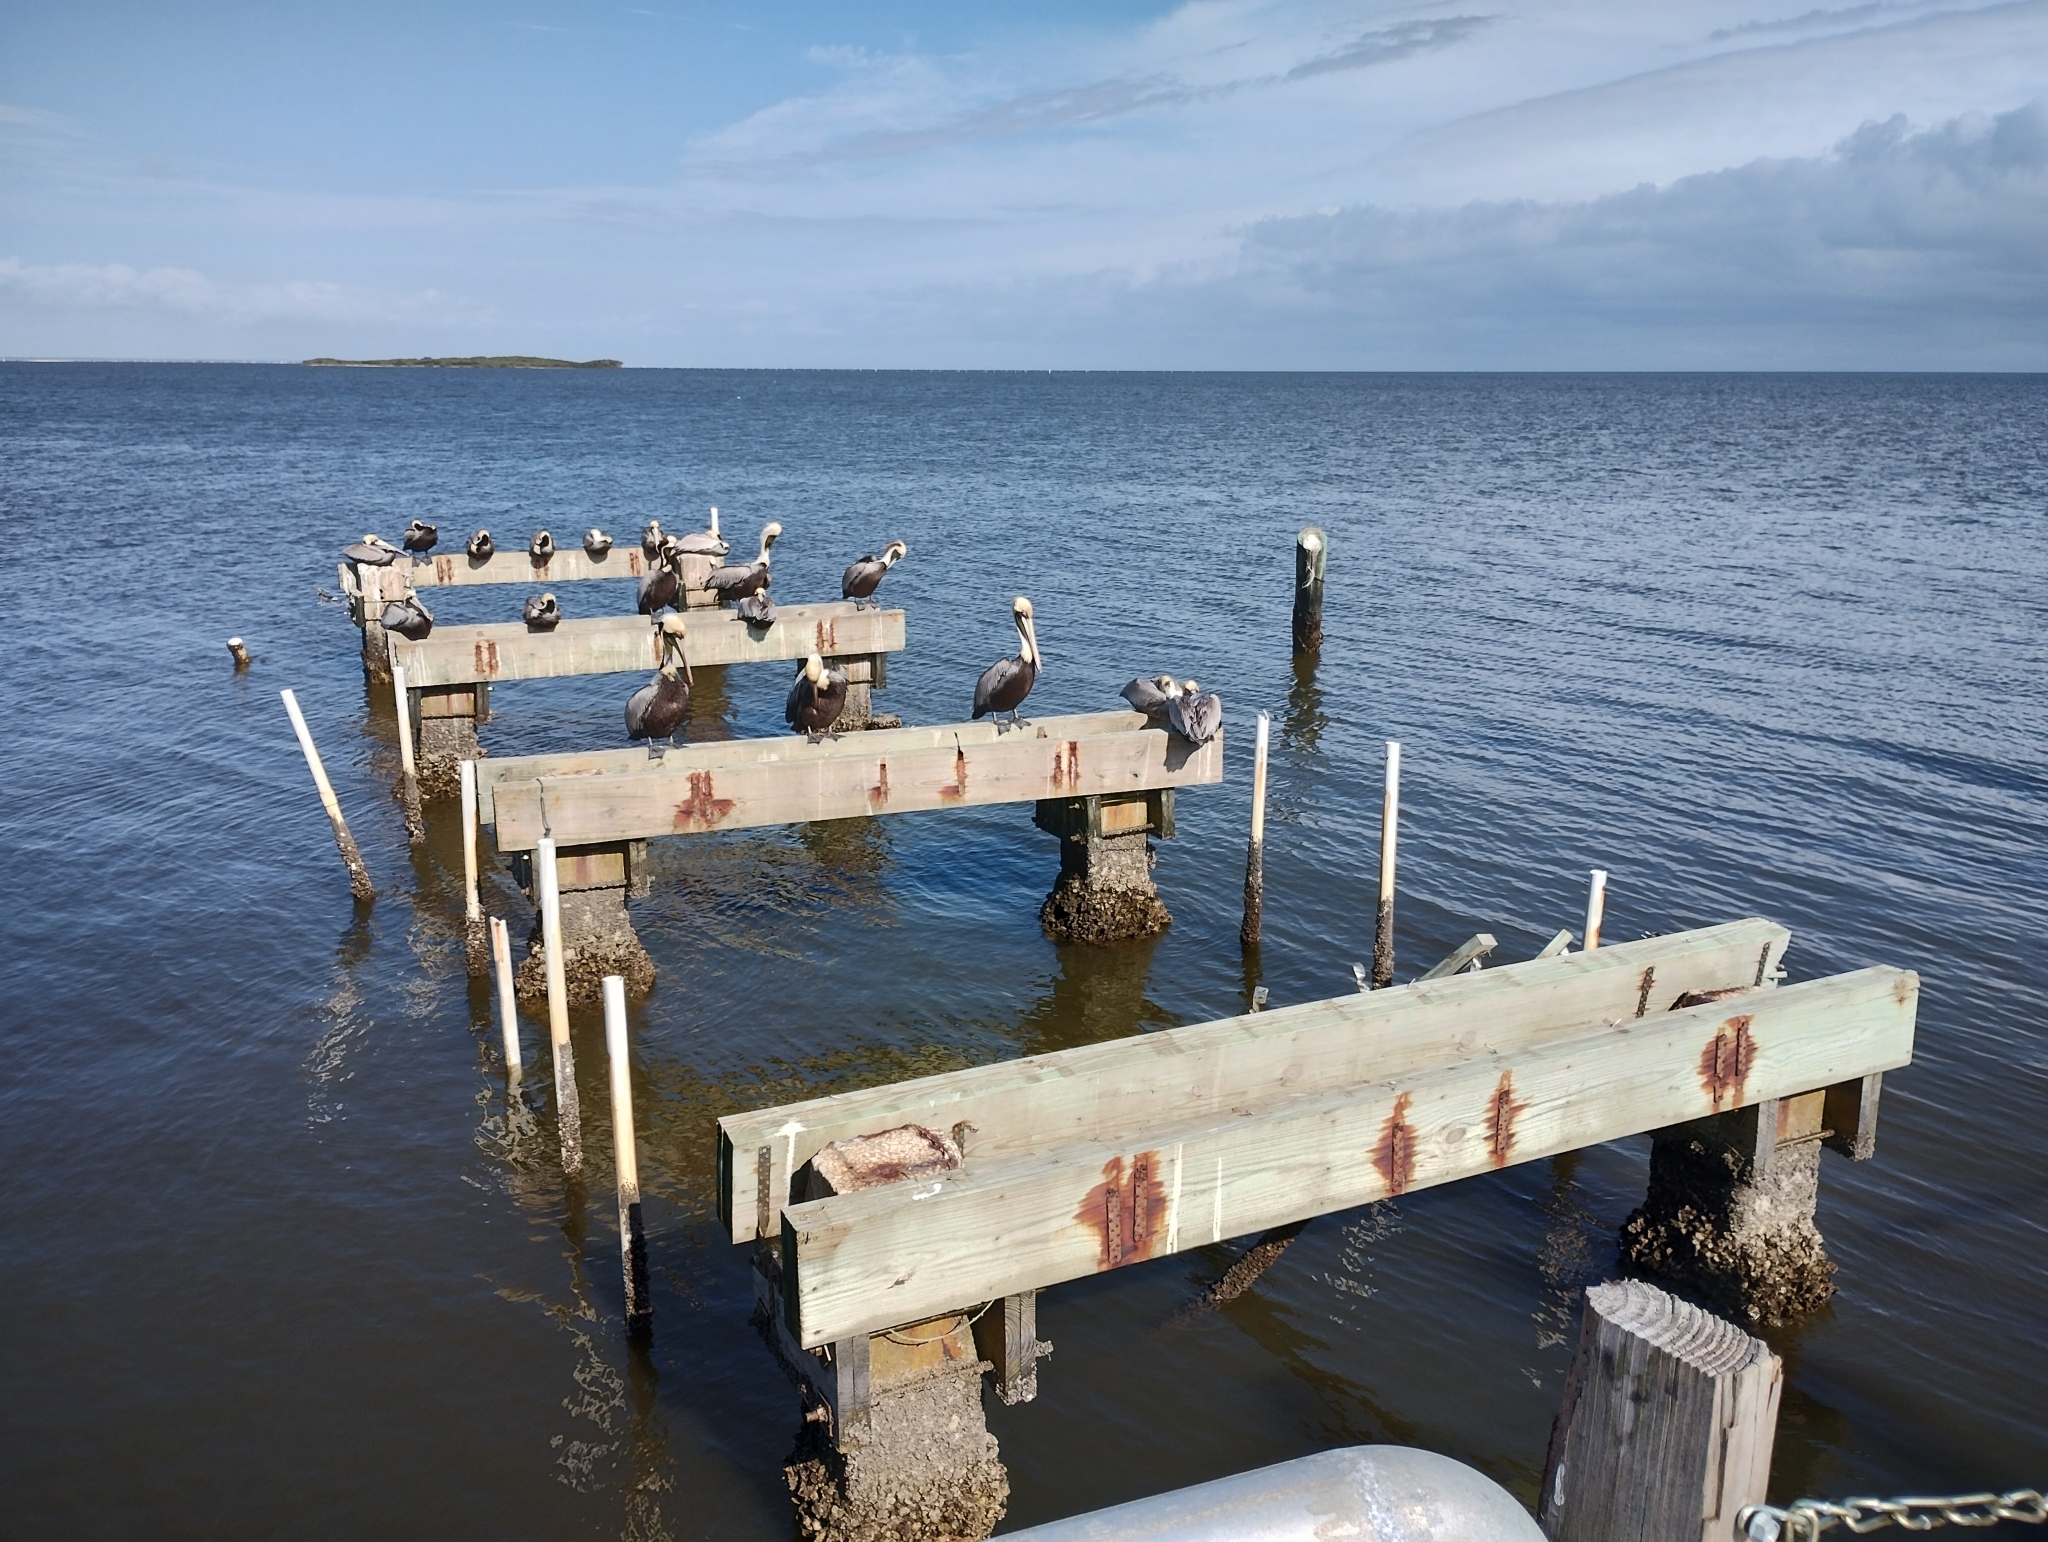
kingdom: Animalia
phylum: Chordata
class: Aves
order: Pelecaniformes
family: Pelecanidae
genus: Pelecanus
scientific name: Pelecanus occidentalis
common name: Brown pelican
